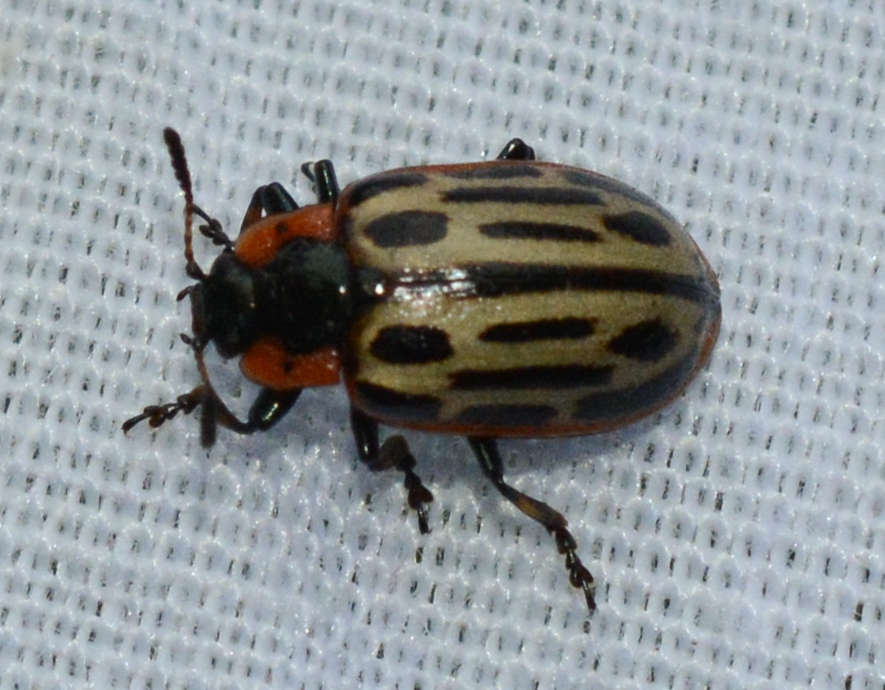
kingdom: Animalia
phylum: Arthropoda
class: Insecta
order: Coleoptera
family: Chrysomelidae
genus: Aethiopocassis
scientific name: Aethiopocassis scripta
